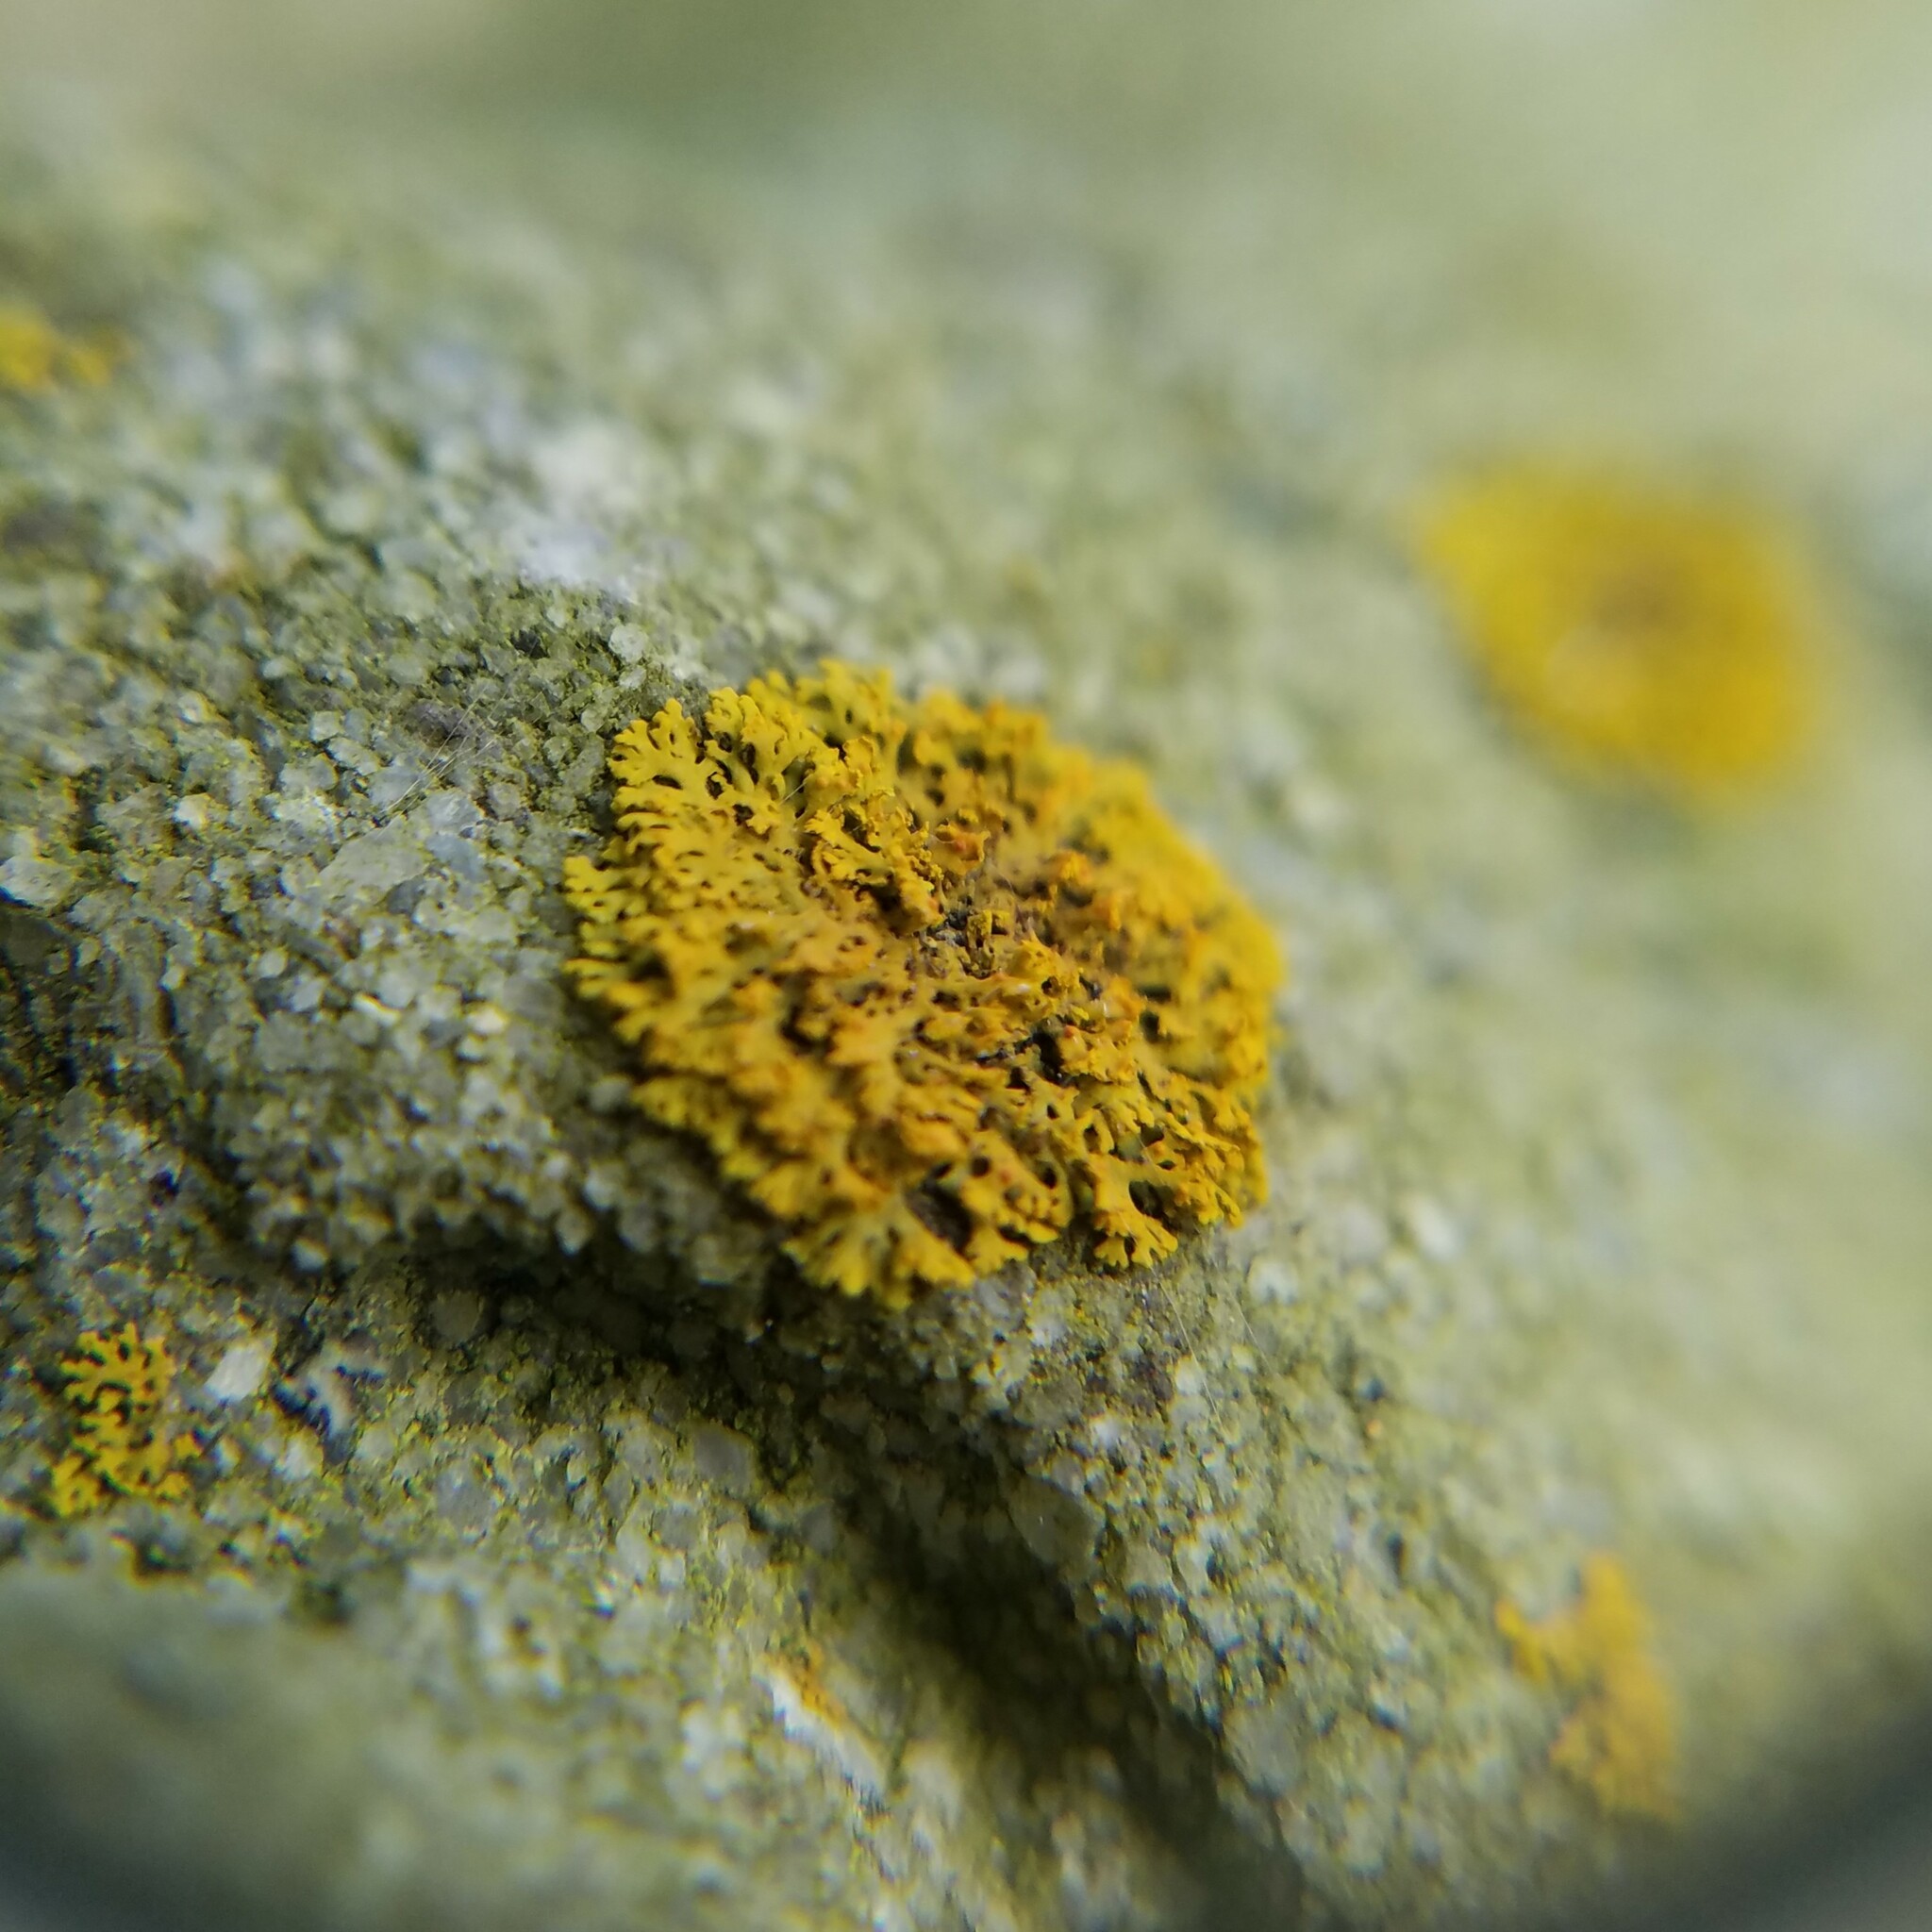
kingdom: Fungi
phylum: Ascomycota
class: Lecanoromycetes
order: Teloschistales
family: Teloschistaceae
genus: Gallowayella
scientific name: Gallowayella weberi
